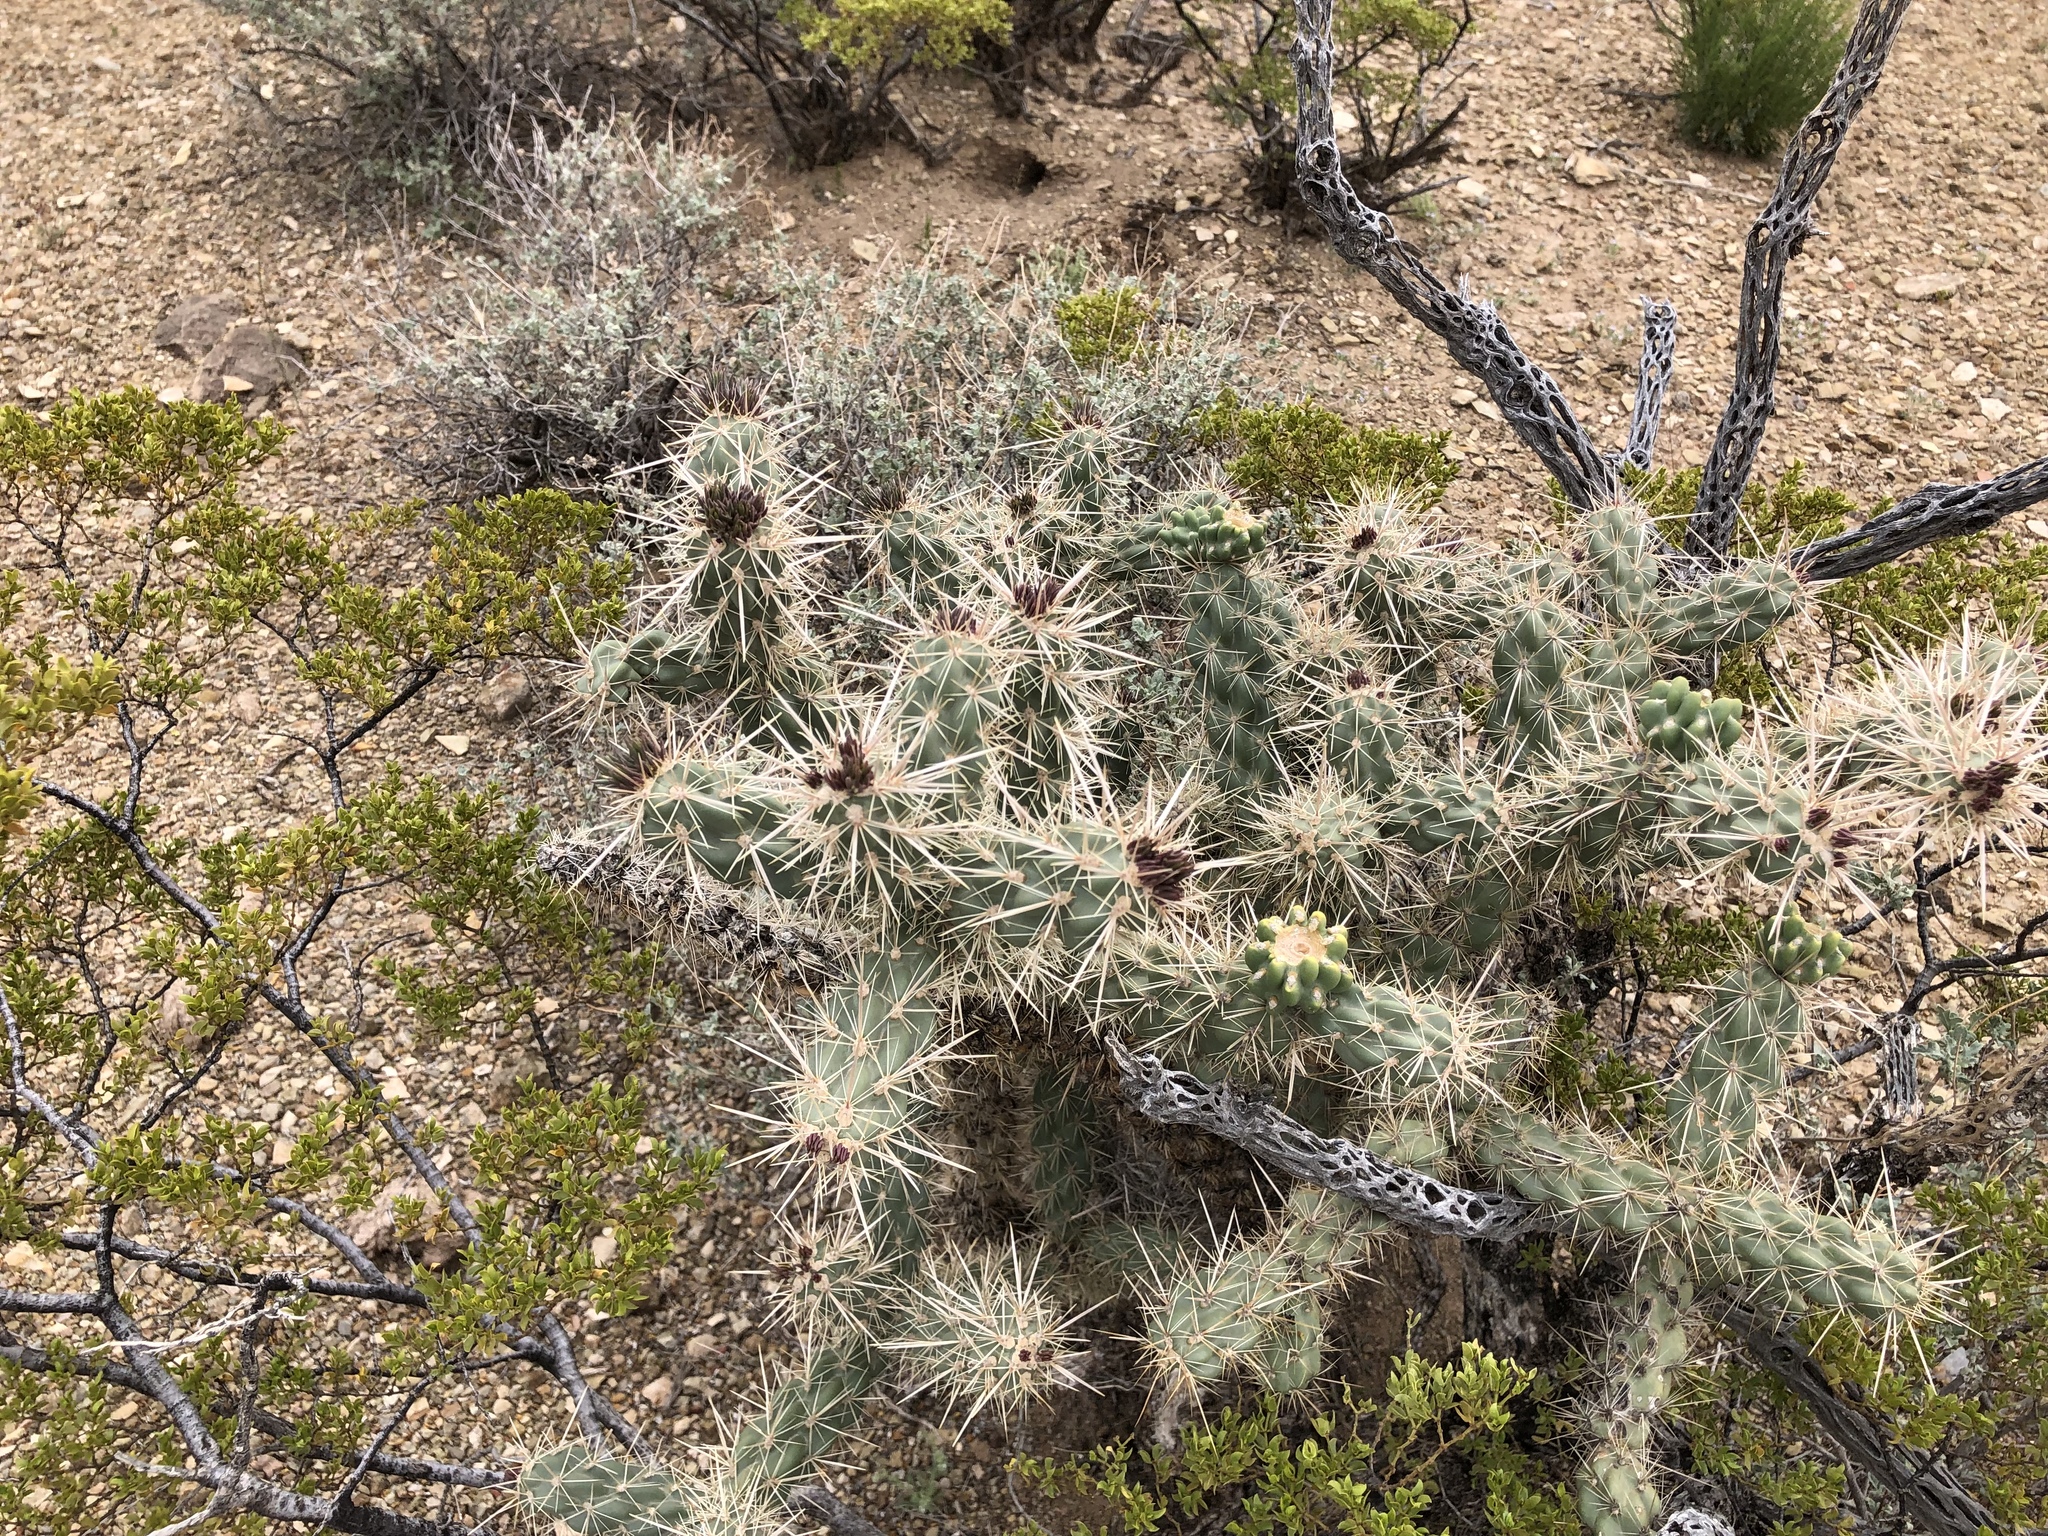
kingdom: Plantae
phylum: Tracheophyta
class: Magnoliopsida
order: Caryophyllales
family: Cactaceae
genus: Cylindropuntia
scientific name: Cylindropuntia imbricata
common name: Candelabrum cactus
